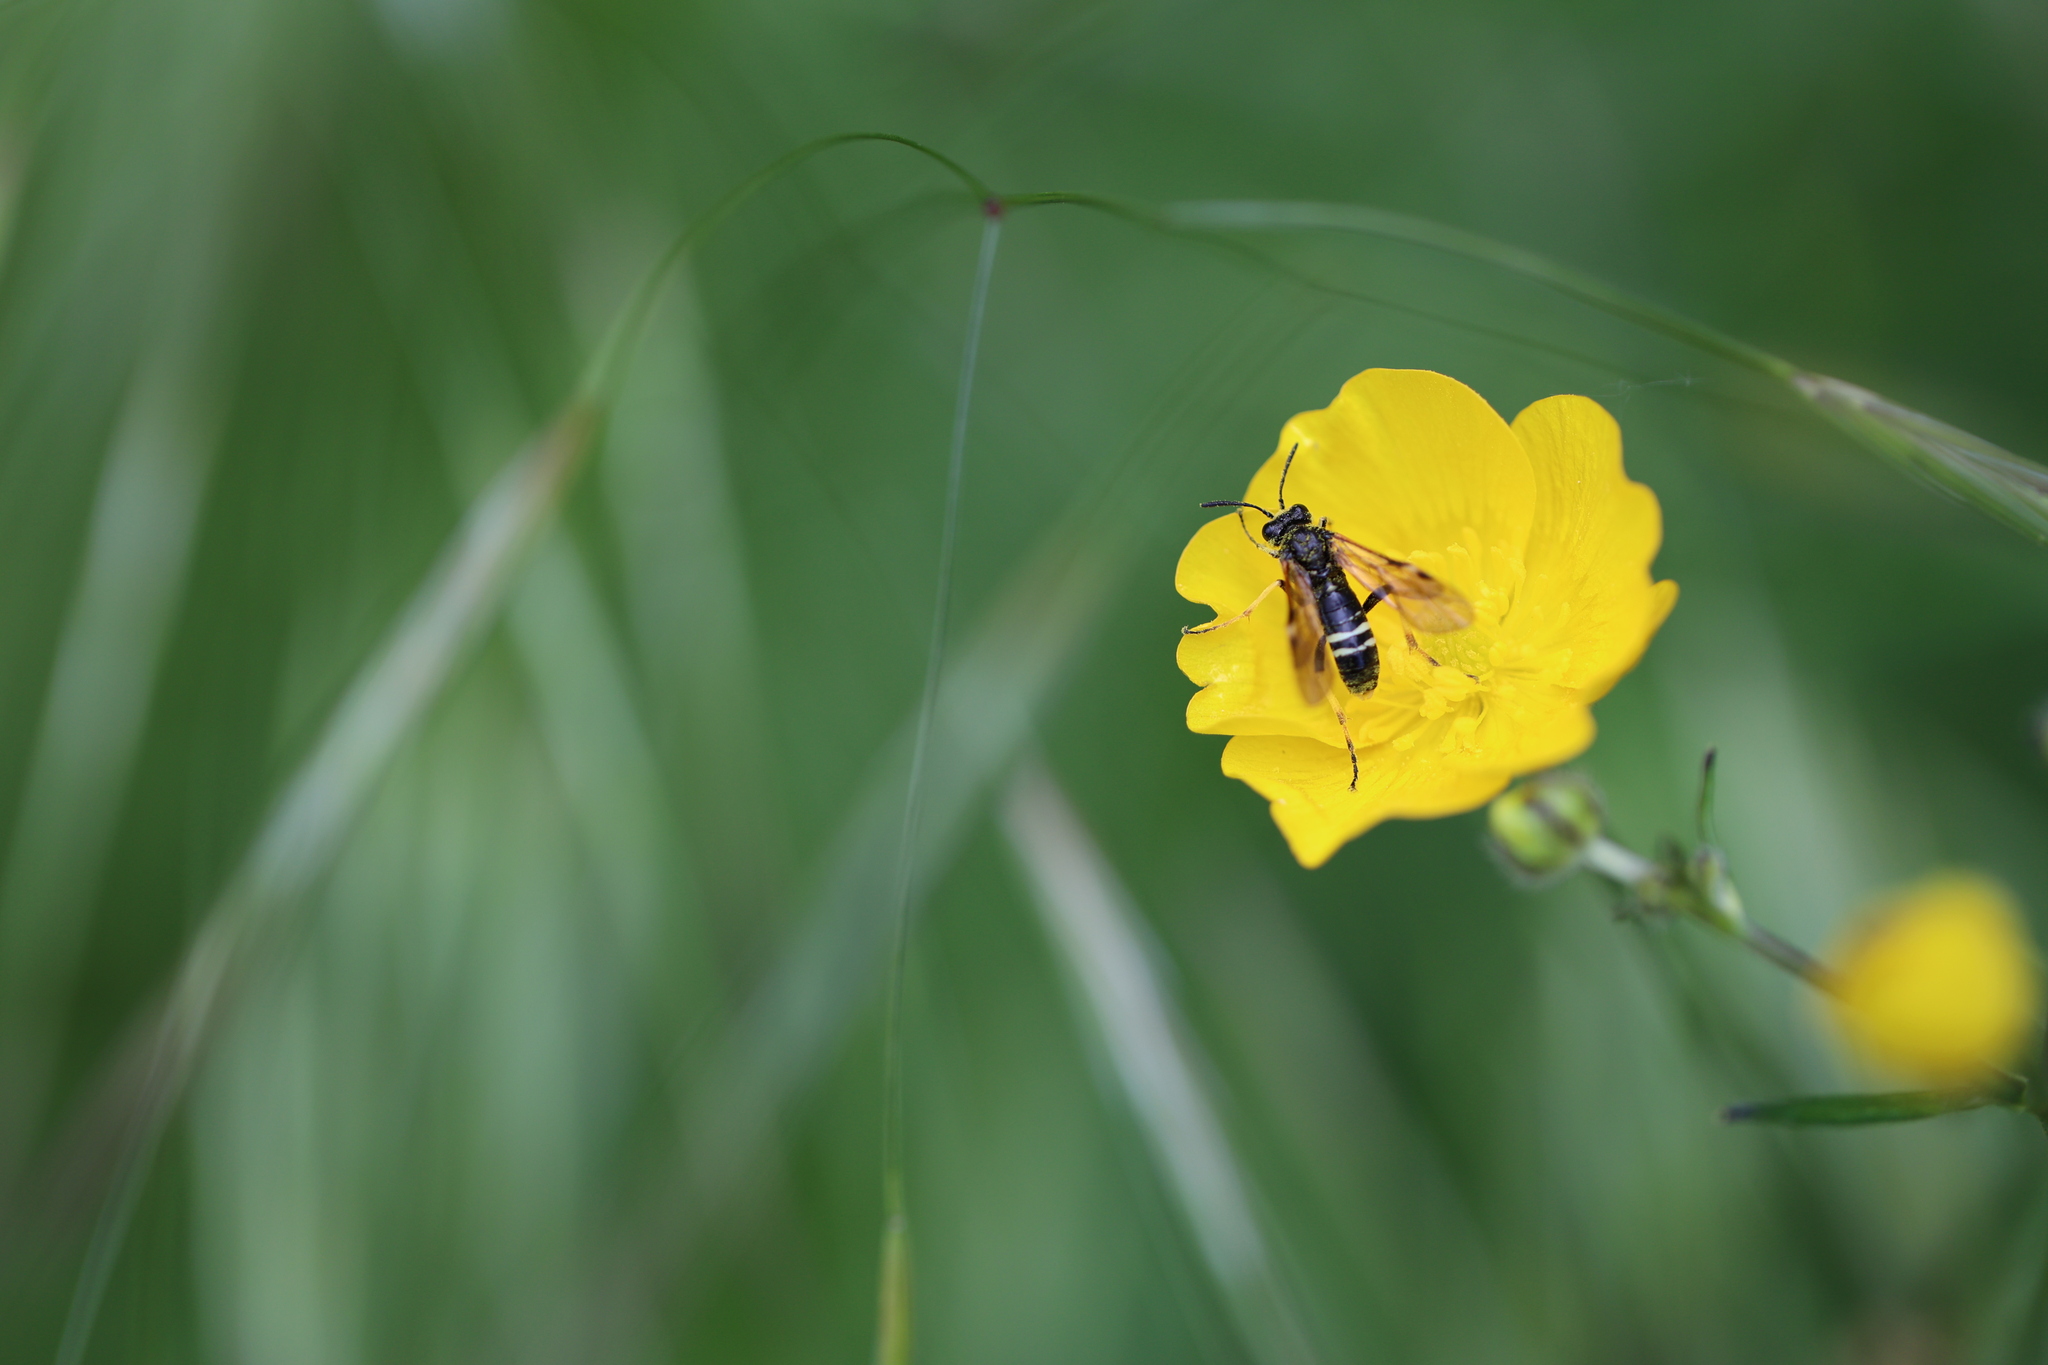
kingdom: Animalia
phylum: Arthropoda
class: Insecta
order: Hymenoptera
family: Tenthredinidae
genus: Tenthredo
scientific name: Tenthredo koehleri
